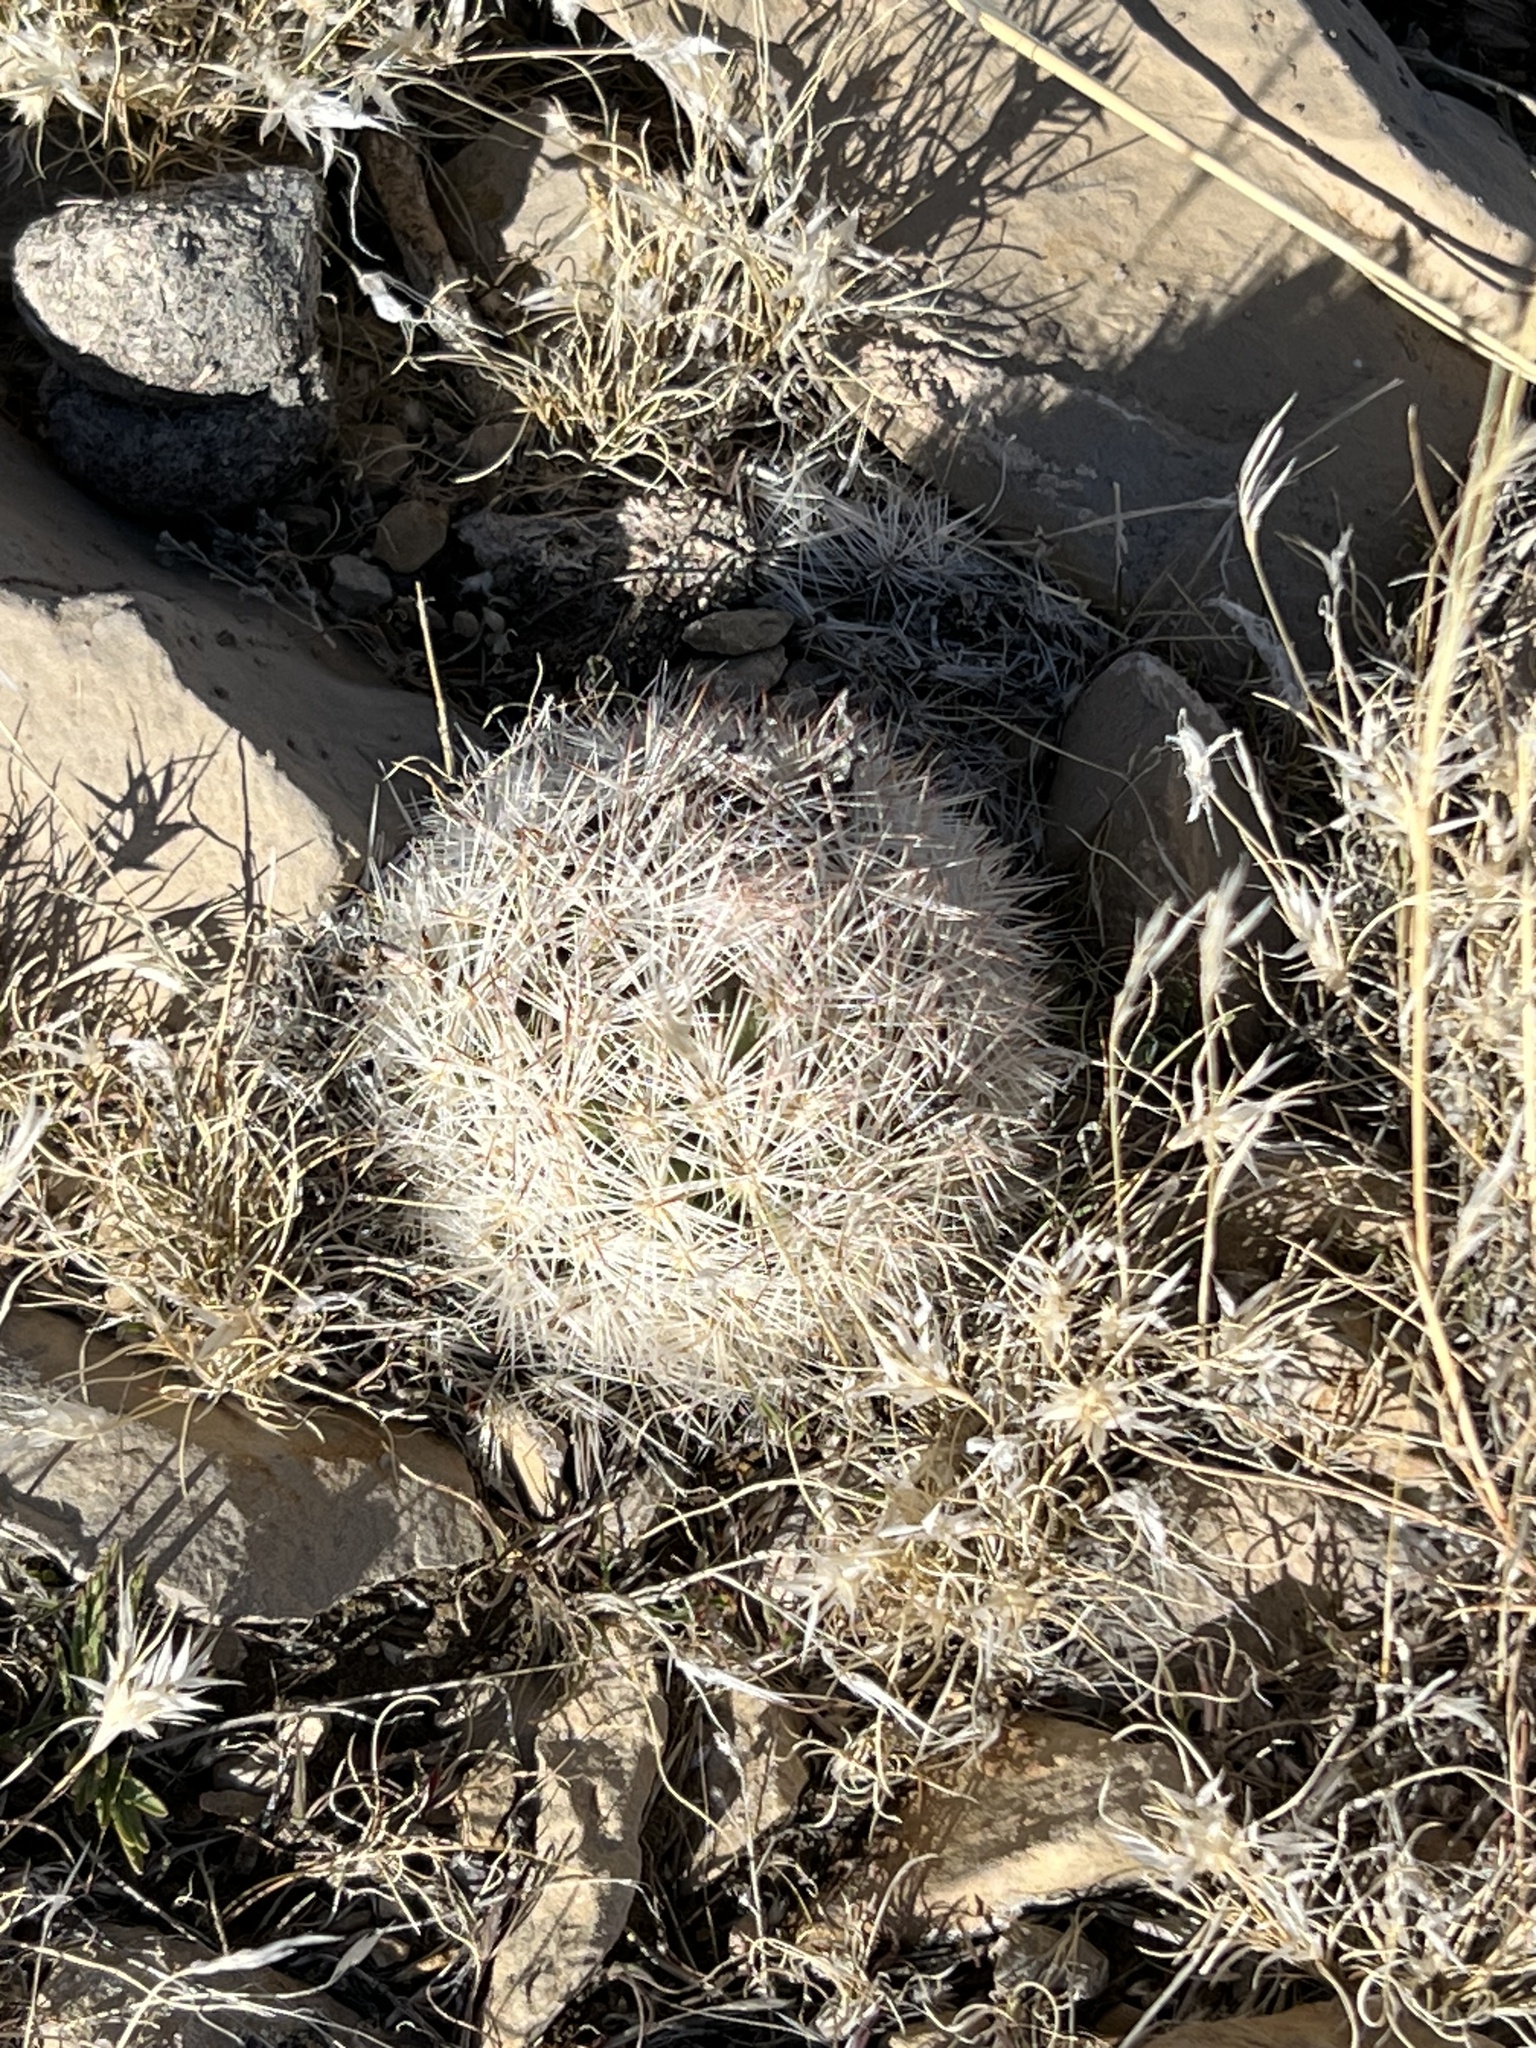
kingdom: Plantae
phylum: Tracheophyta
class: Magnoliopsida
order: Caryophyllales
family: Cactaceae
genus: Pelecyphora
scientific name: Pelecyphora dasyacantha
